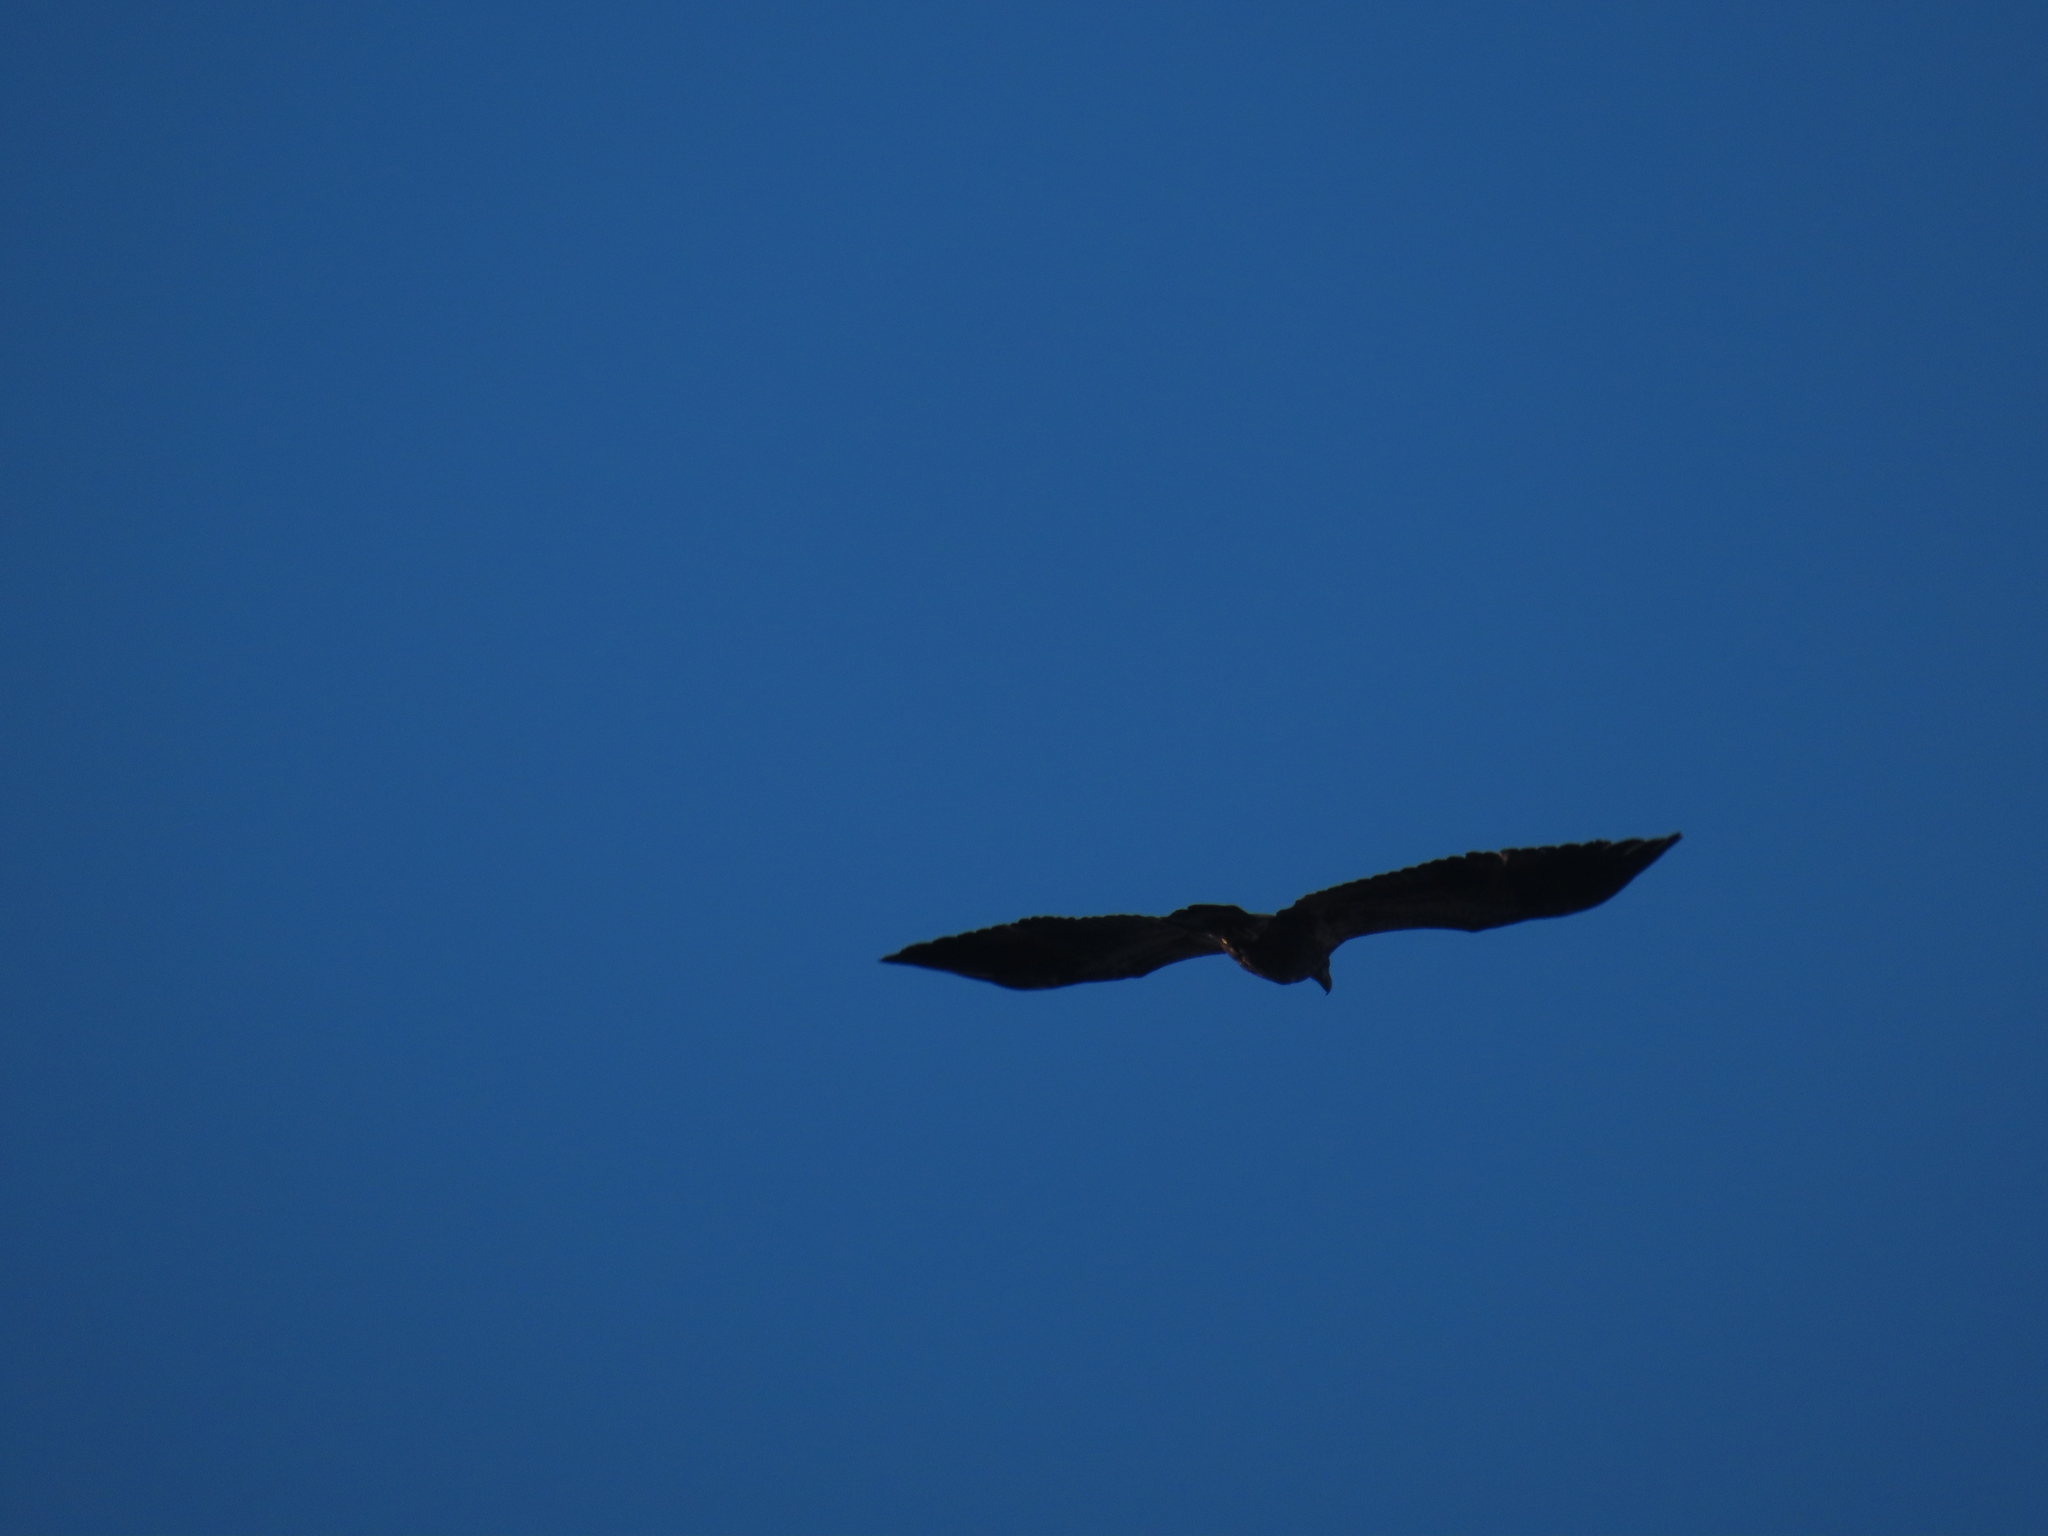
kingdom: Animalia
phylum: Chordata
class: Aves
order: Accipitriformes
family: Accipitridae
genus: Haliaeetus
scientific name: Haliaeetus leucocephalus
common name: Bald eagle
